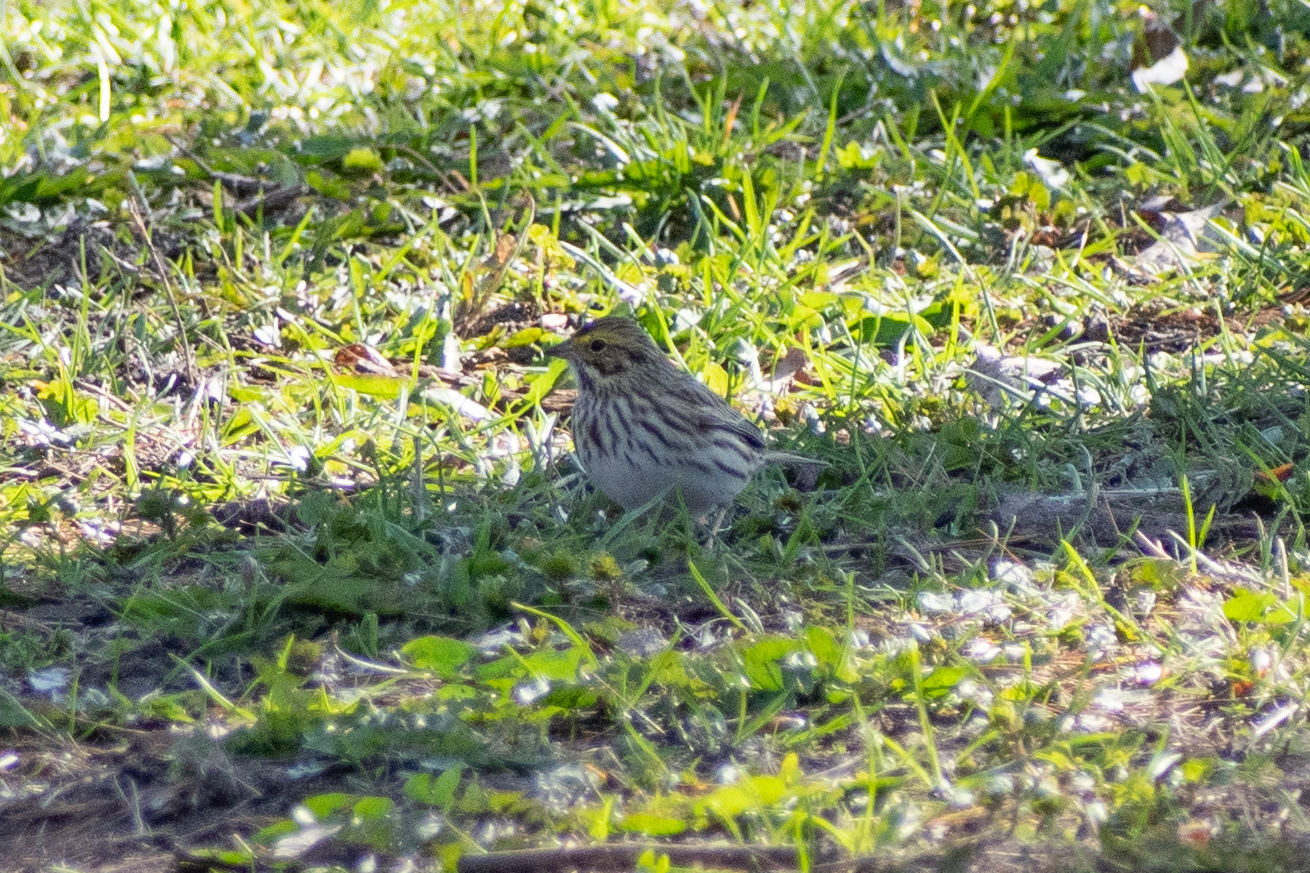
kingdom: Animalia
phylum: Chordata
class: Aves
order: Passeriformes
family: Passerellidae
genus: Passerculus
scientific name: Passerculus sandwichensis
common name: Savannah sparrow
